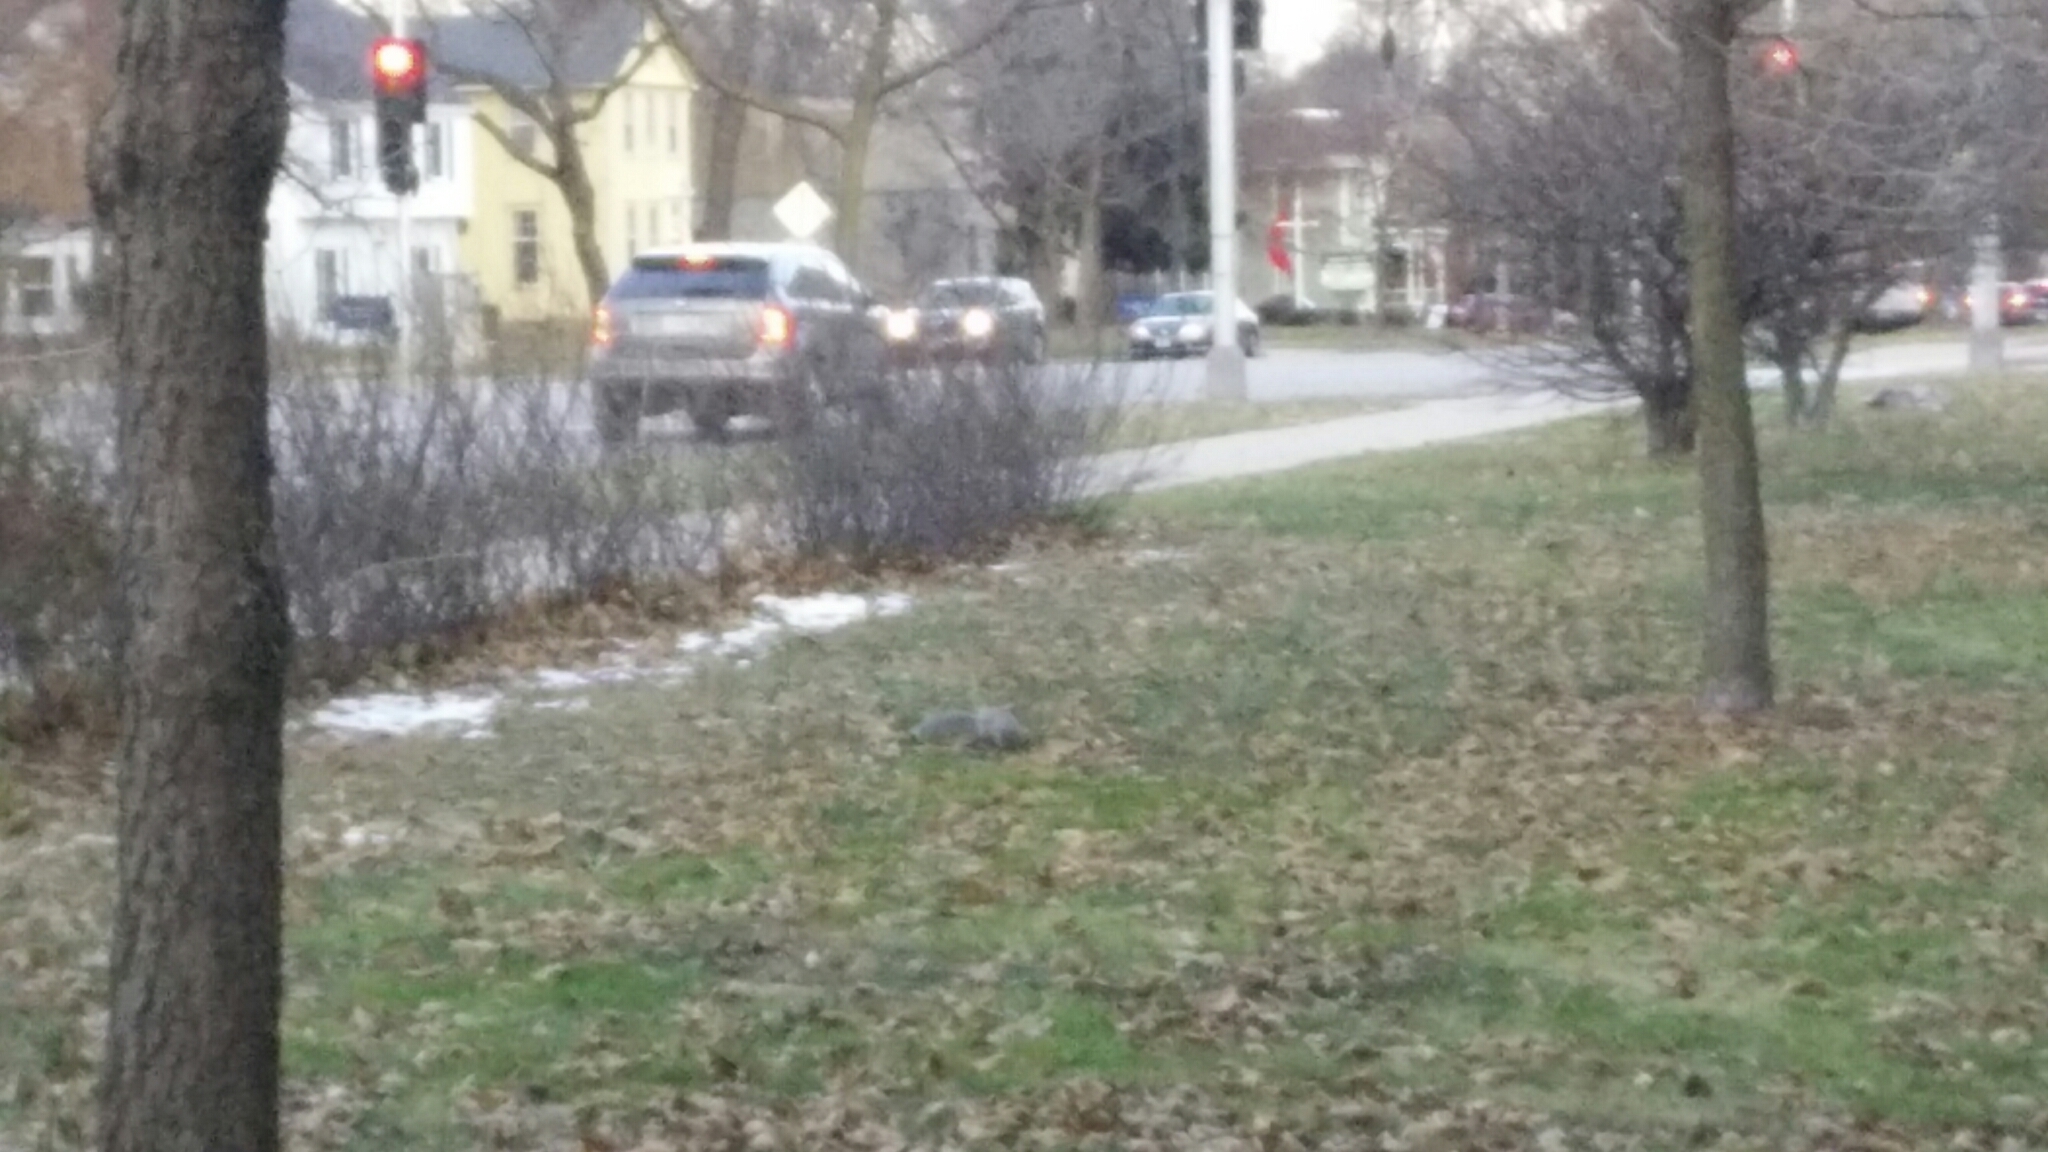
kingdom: Animalia
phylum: Chordata
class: Mammalia
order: Rodentia
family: Sciuridae
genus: Sciurus
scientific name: Sciurus carolinensis
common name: Eastern gray squirrel
